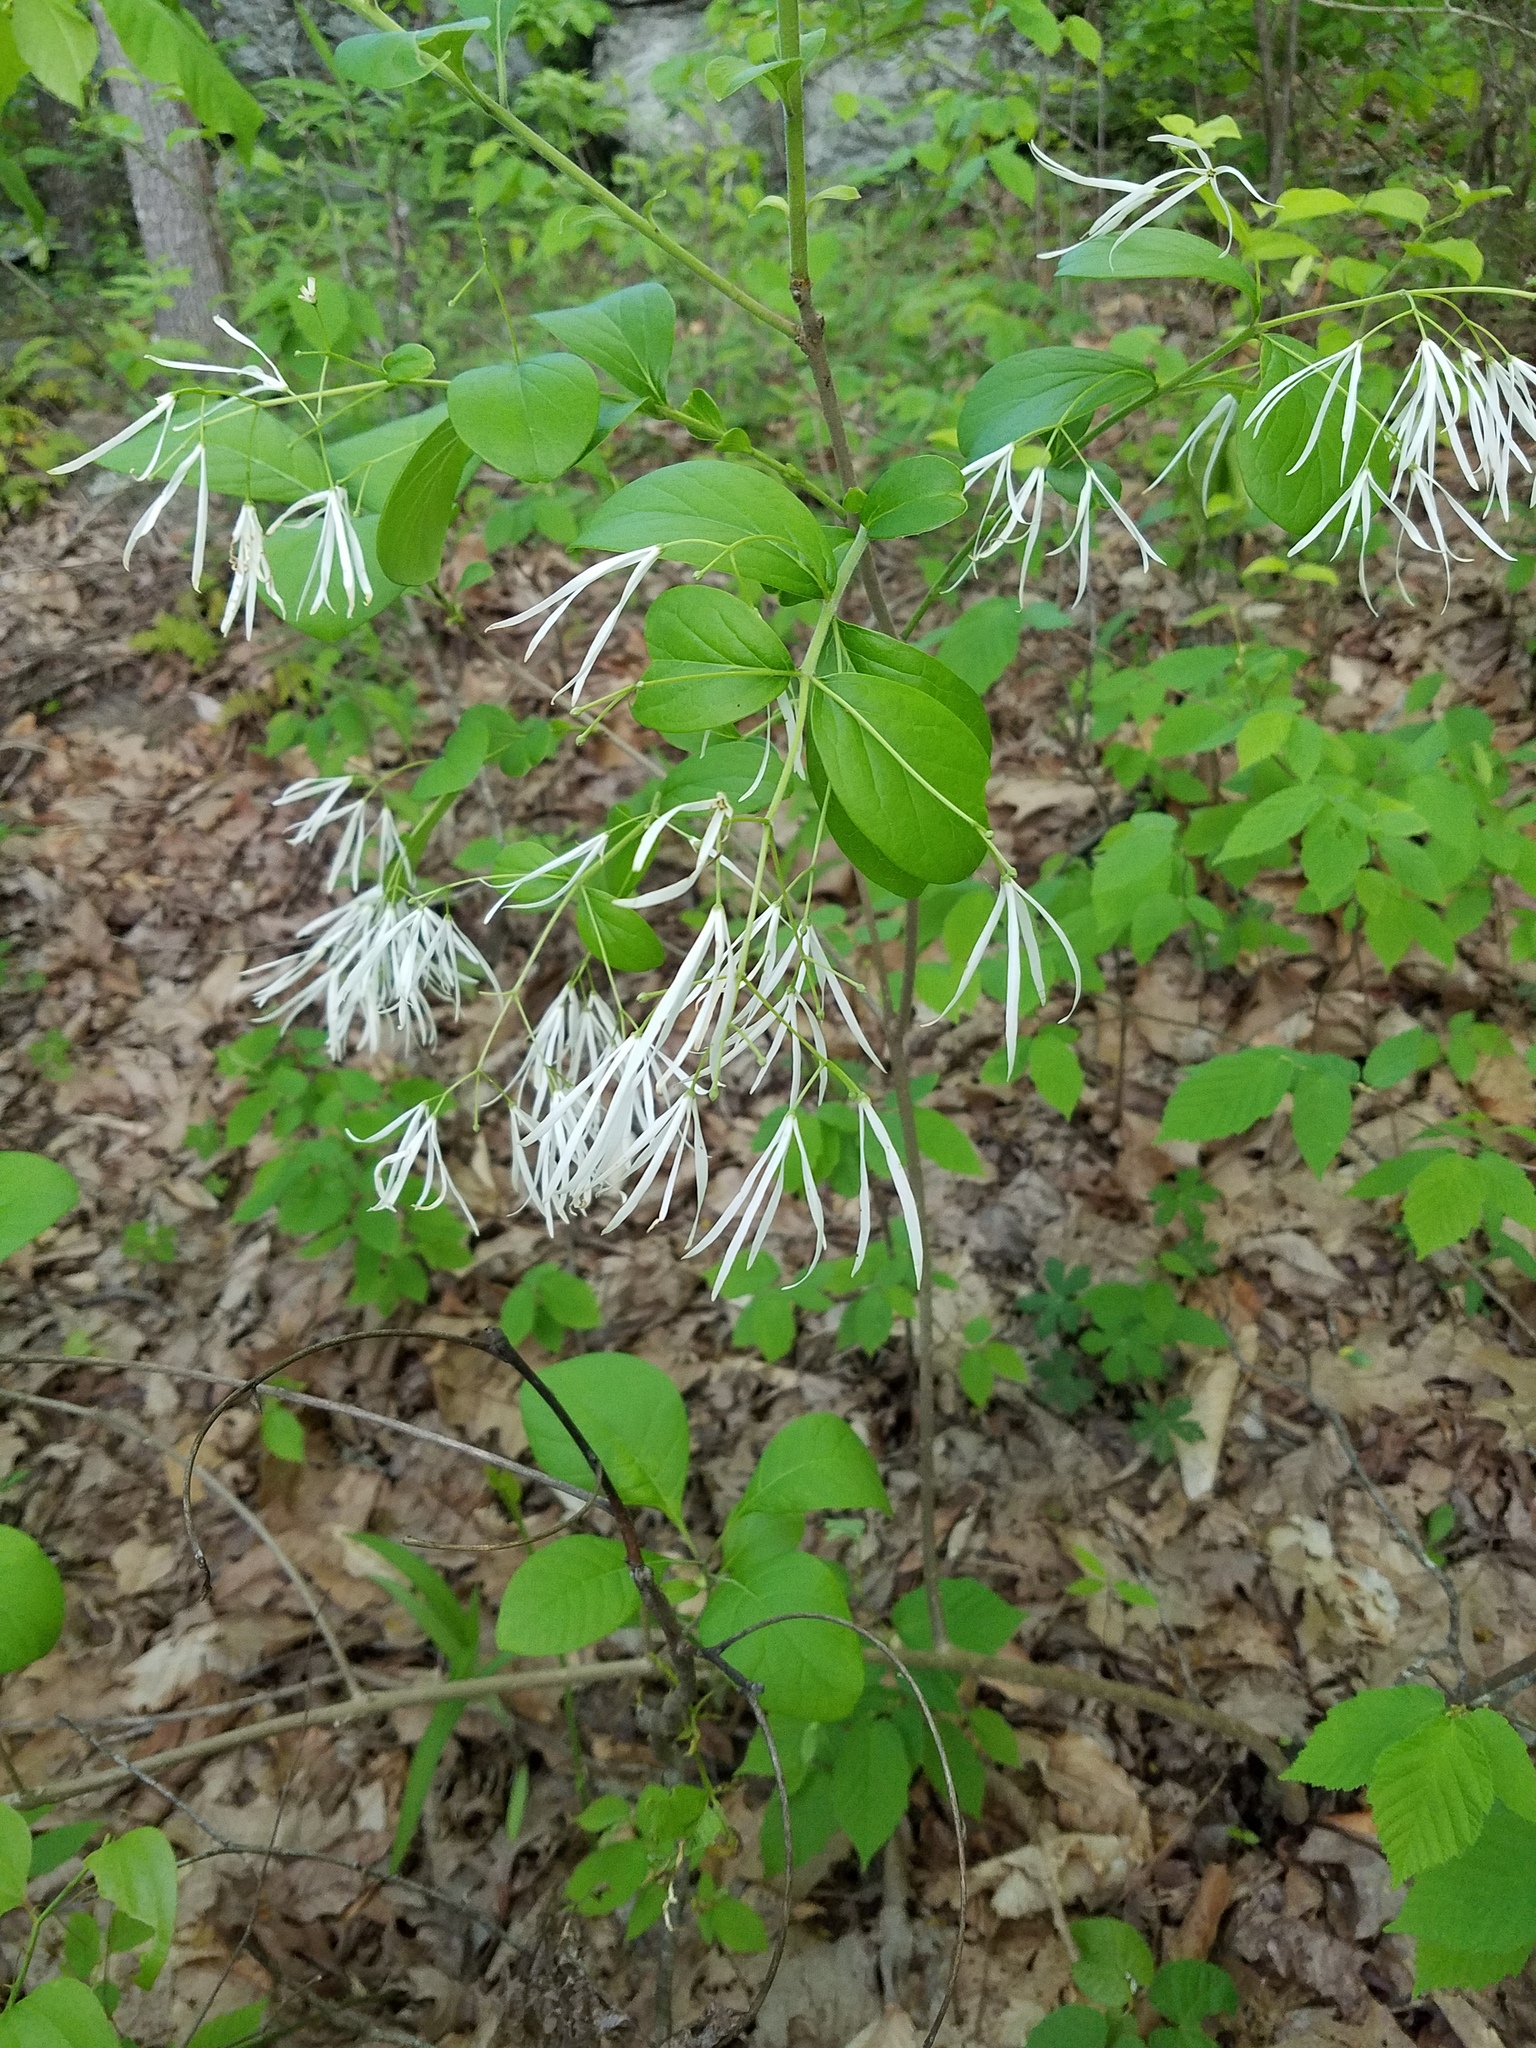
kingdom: Plantae
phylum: Tracheophyta
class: Magnoliopsida
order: Lamiales
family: Oleaceae
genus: Chionanthus
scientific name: Chionanthus virginicus
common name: American fringetree
